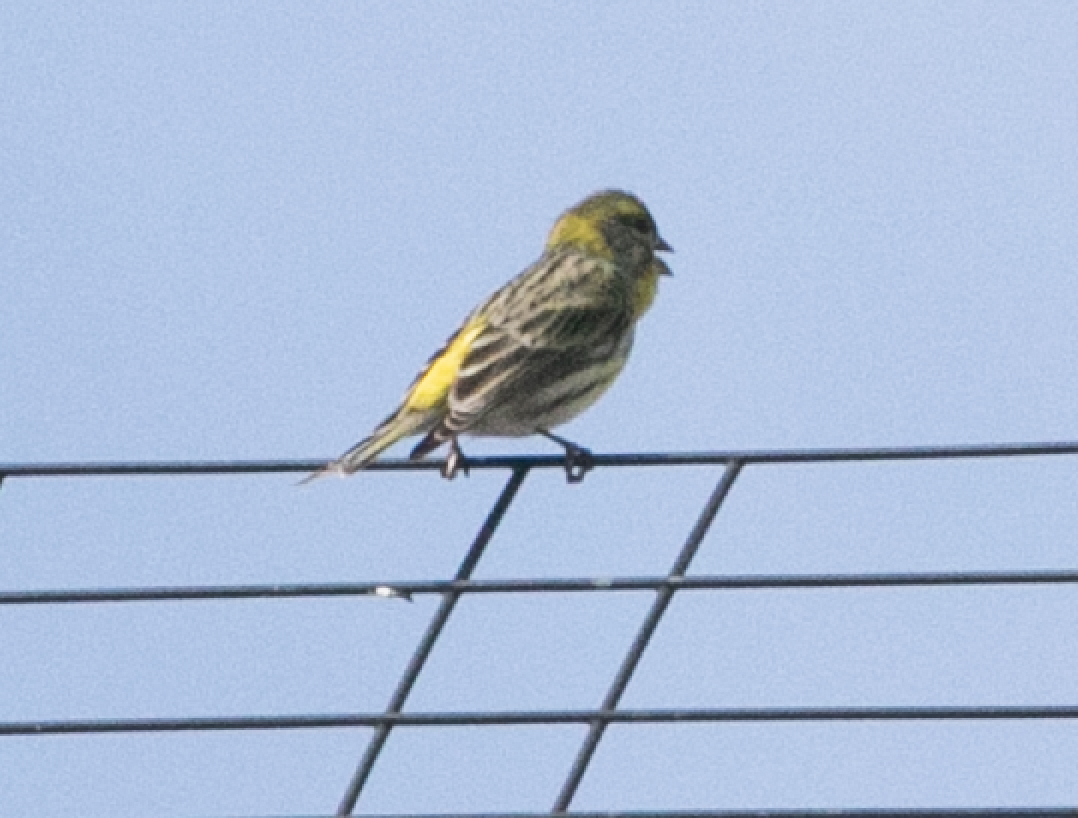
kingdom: Animalia
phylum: Chordata
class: Aves
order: Passeriformes
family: Fringillidae
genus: Serinus
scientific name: Serinus serinus
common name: European serin
